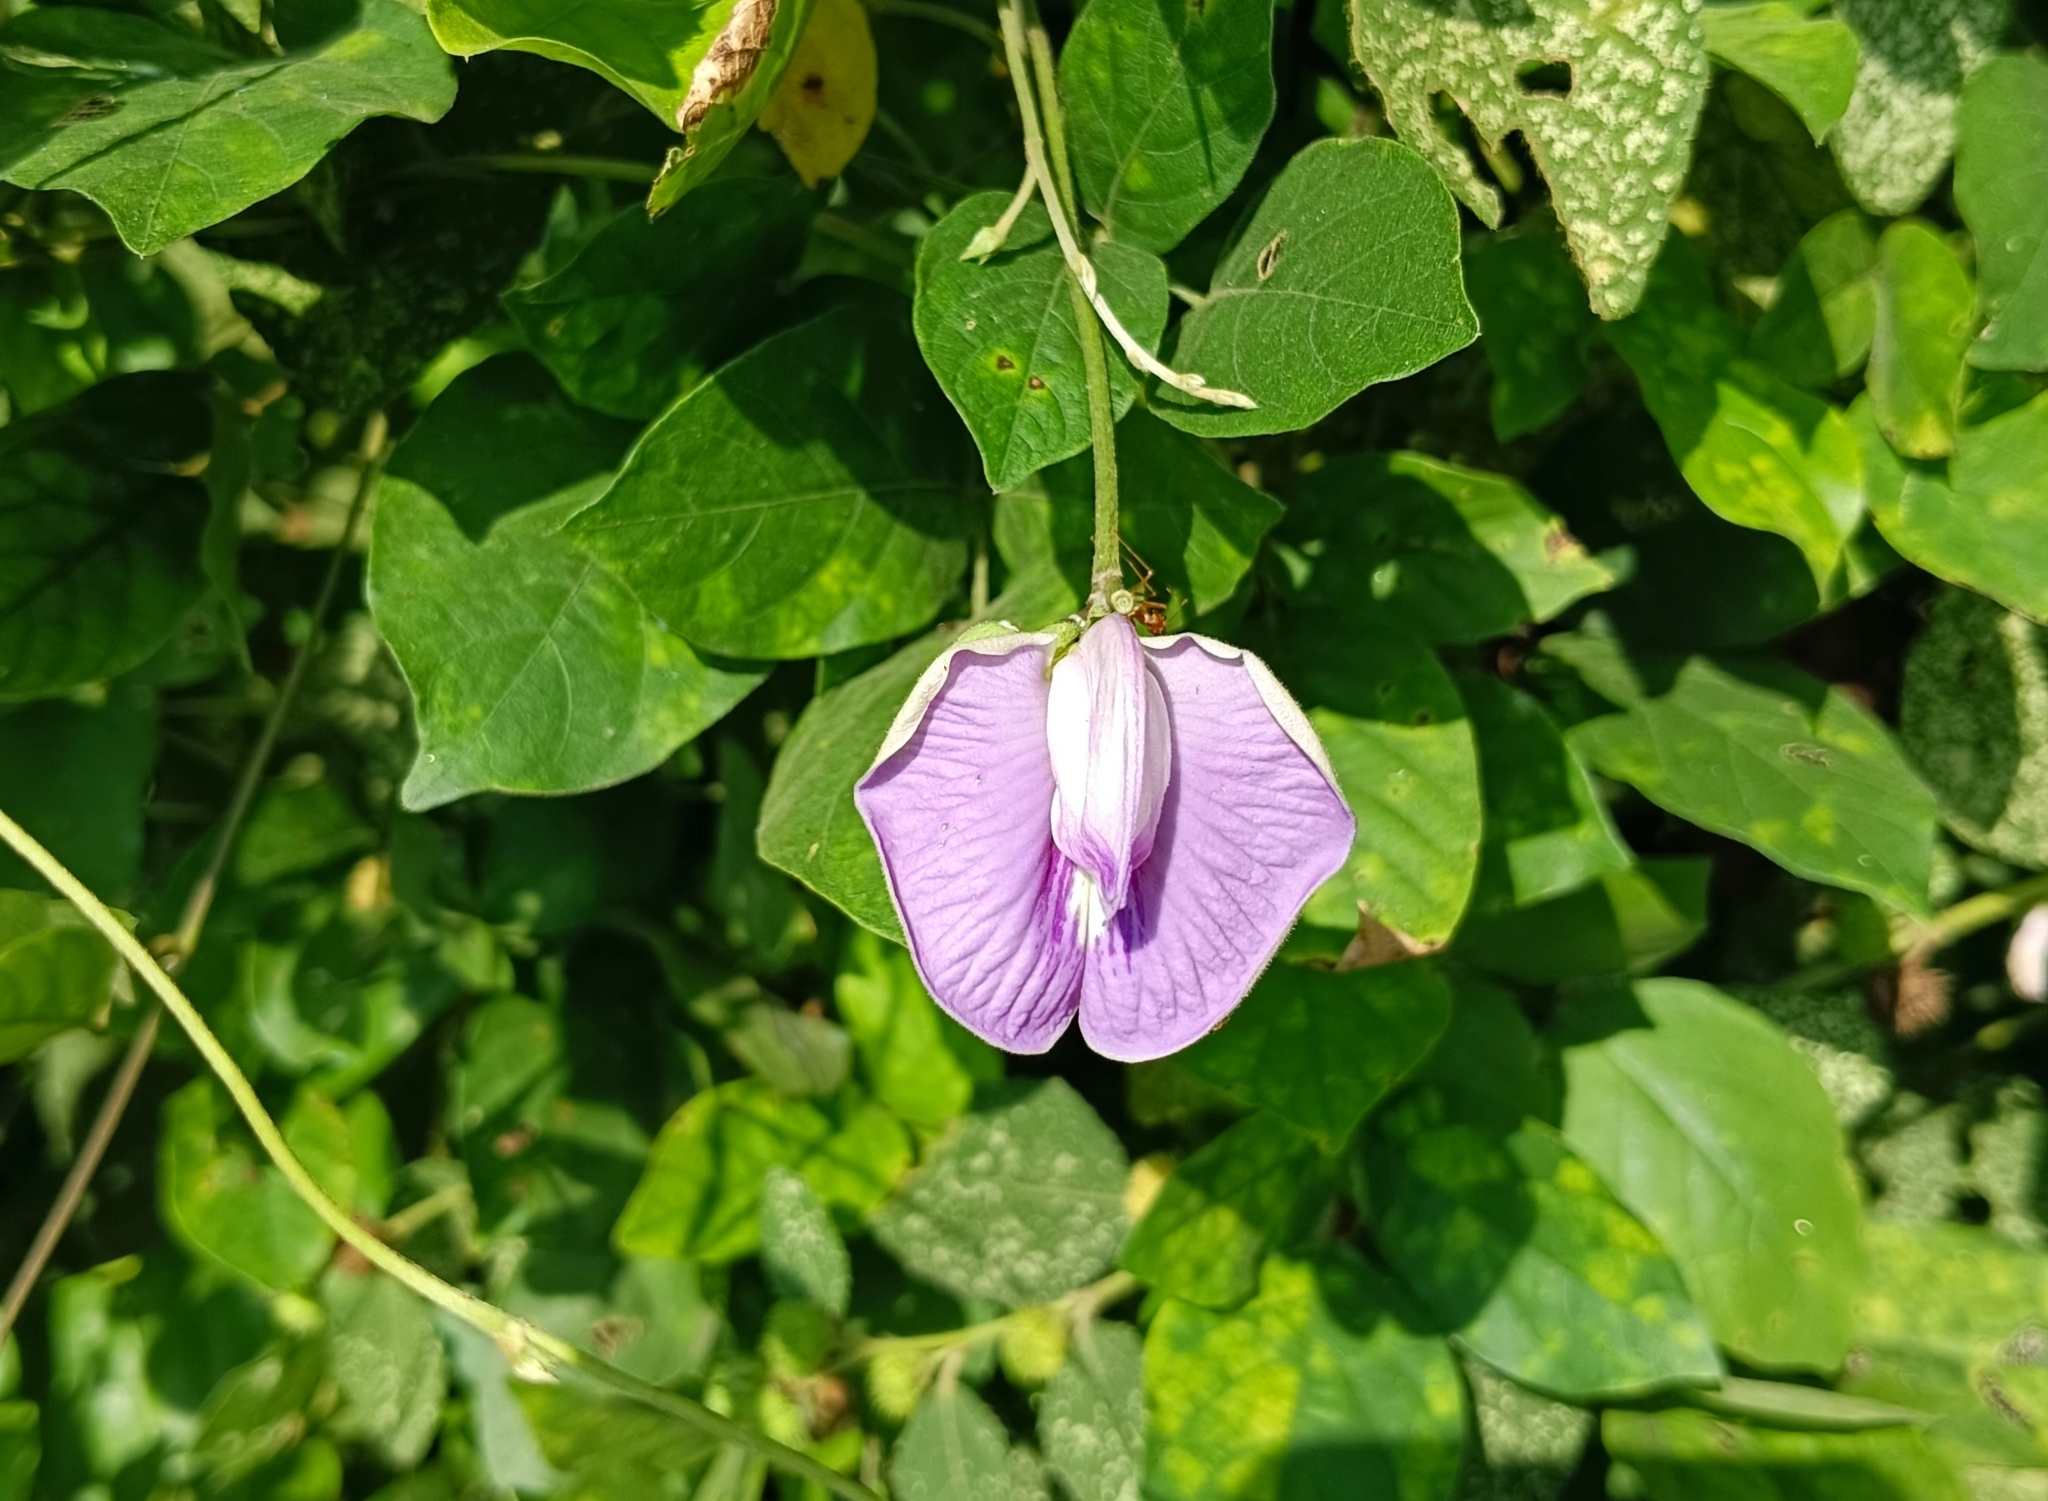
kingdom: Plantae
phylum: Tracheophyta
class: Magnoliopsida
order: Fabales
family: Fabaceae
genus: Centrosema
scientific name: Centrosema molle
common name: Soft butterfly pea
